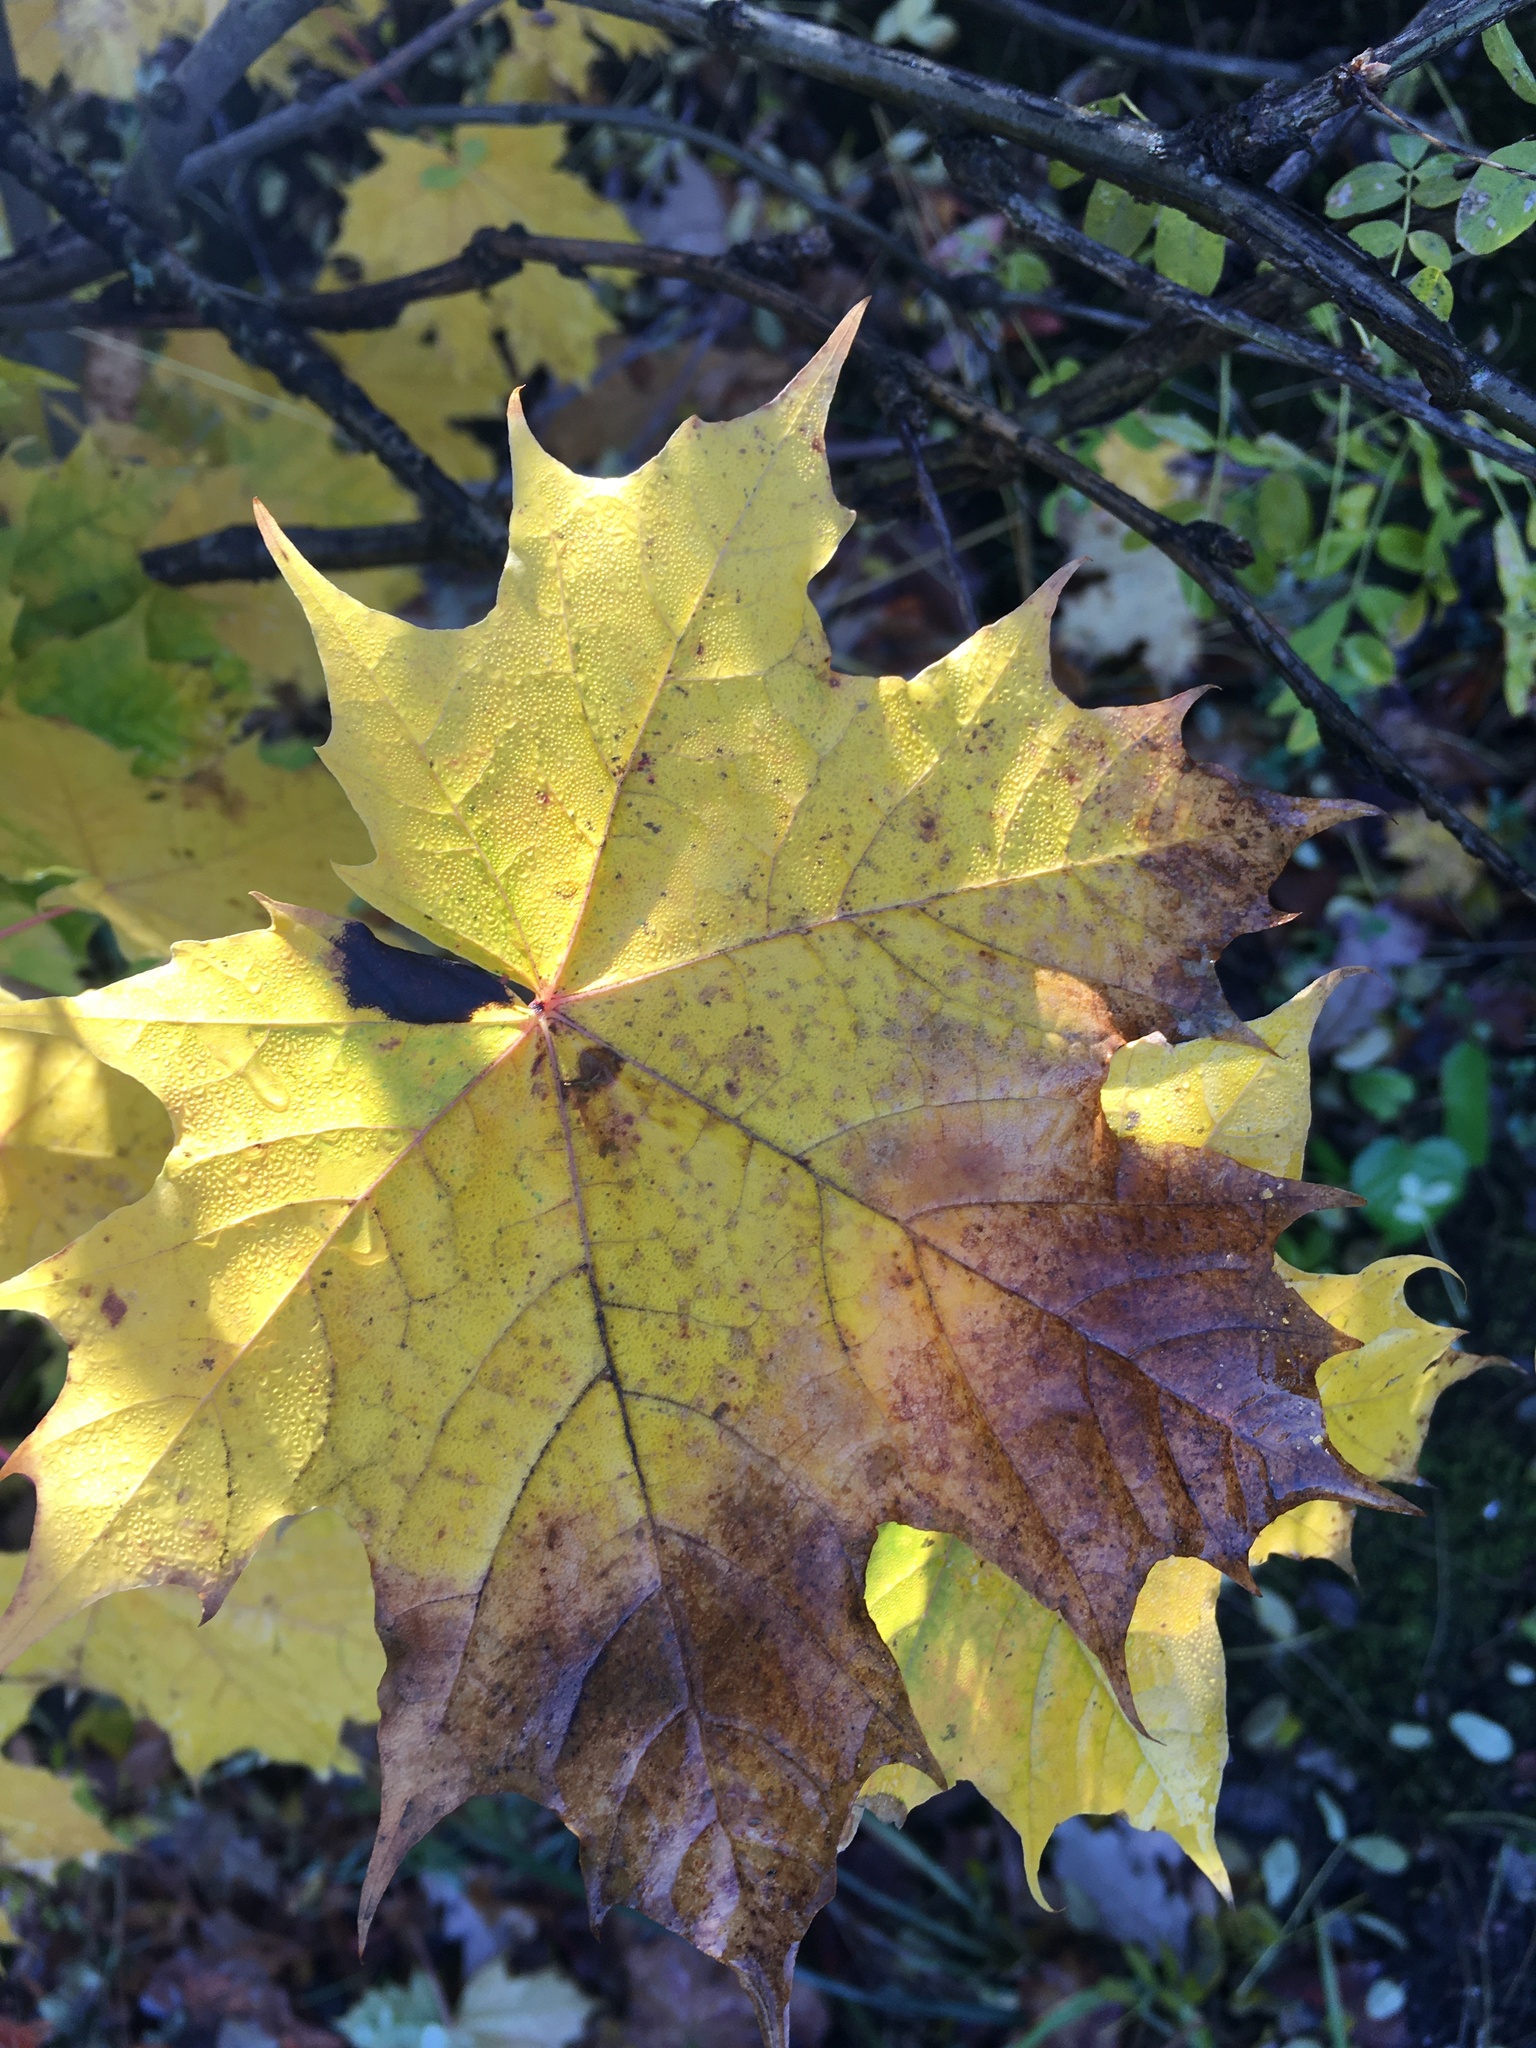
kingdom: Plantae
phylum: Tracheophyta
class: Magnoliopsida
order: Sapindales
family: Sapindaceae
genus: Acer
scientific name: Acer platanoides
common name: Norway maple
